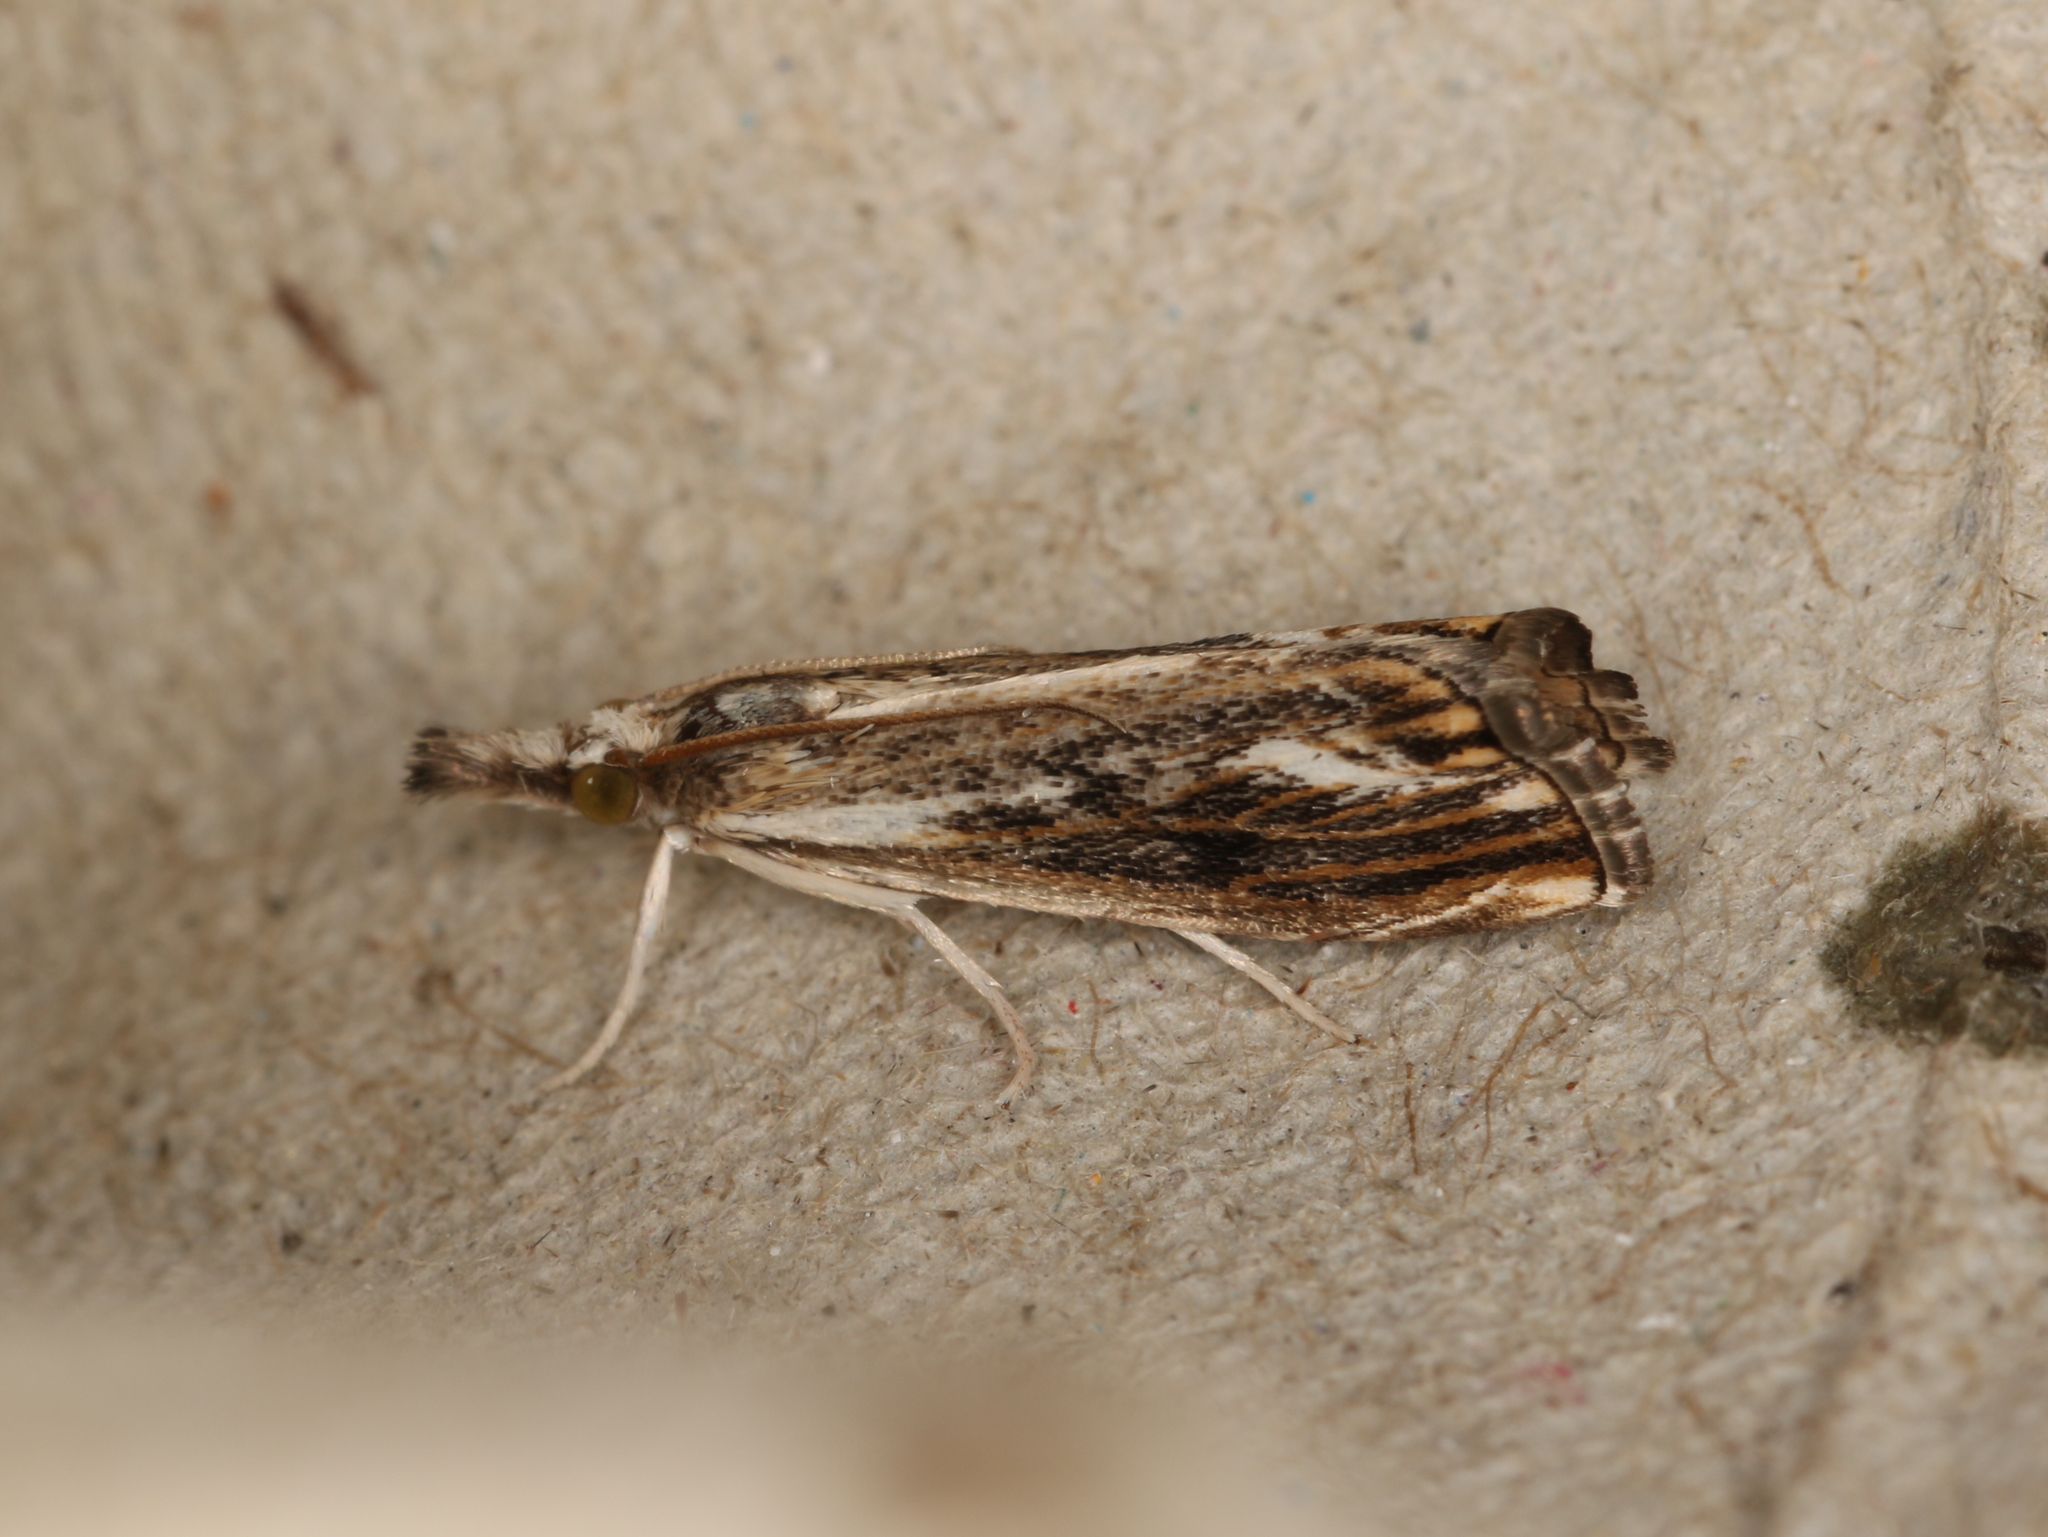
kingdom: Animalia
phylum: Arthropoda
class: Insecta
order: Lepidoptera
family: Crambidae
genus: Catoptria
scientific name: Catoptria verellus
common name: Marbled grass-veneer
